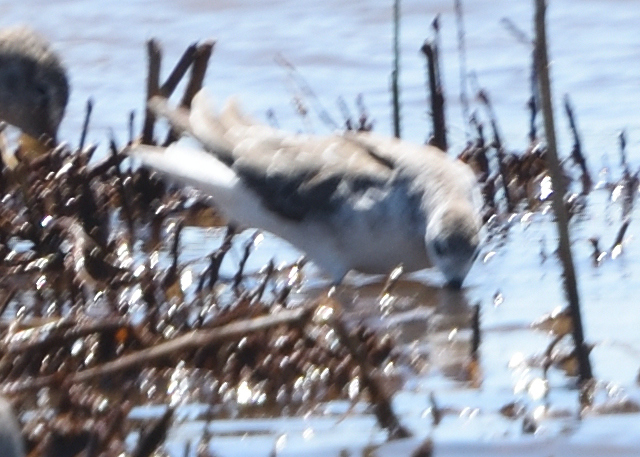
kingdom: Animalia
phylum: Chordata
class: Aves
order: Charadriiformes
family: Scolopacidae
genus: Phalaropus
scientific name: Phalaropus tricolor
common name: Wilson's phalarope
